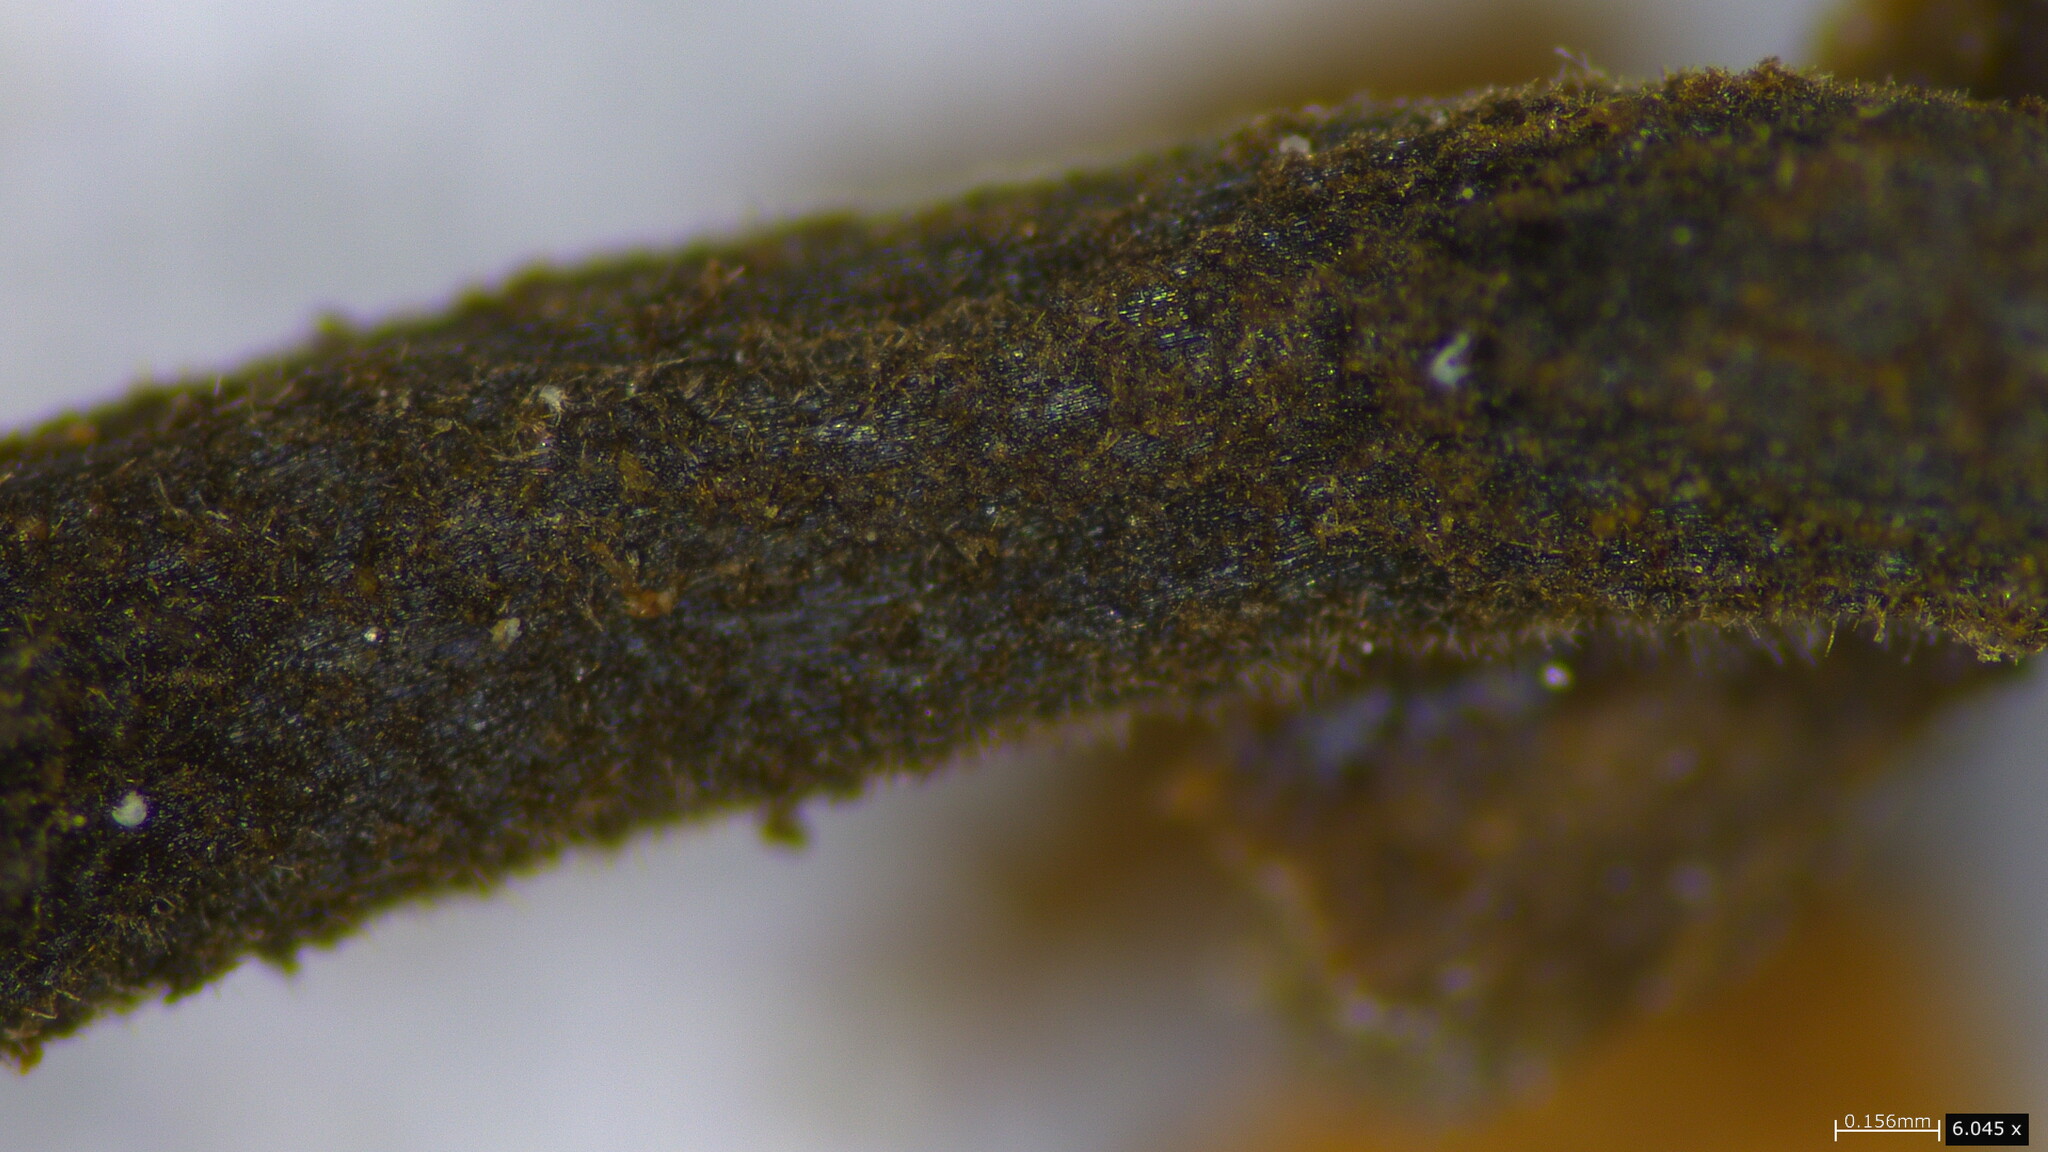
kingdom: Fungi
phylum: Ascomycota
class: Leotiomycetes
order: Helotiales
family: Sclerotiniaceae
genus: Ciboria
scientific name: Ciboria batschiana
